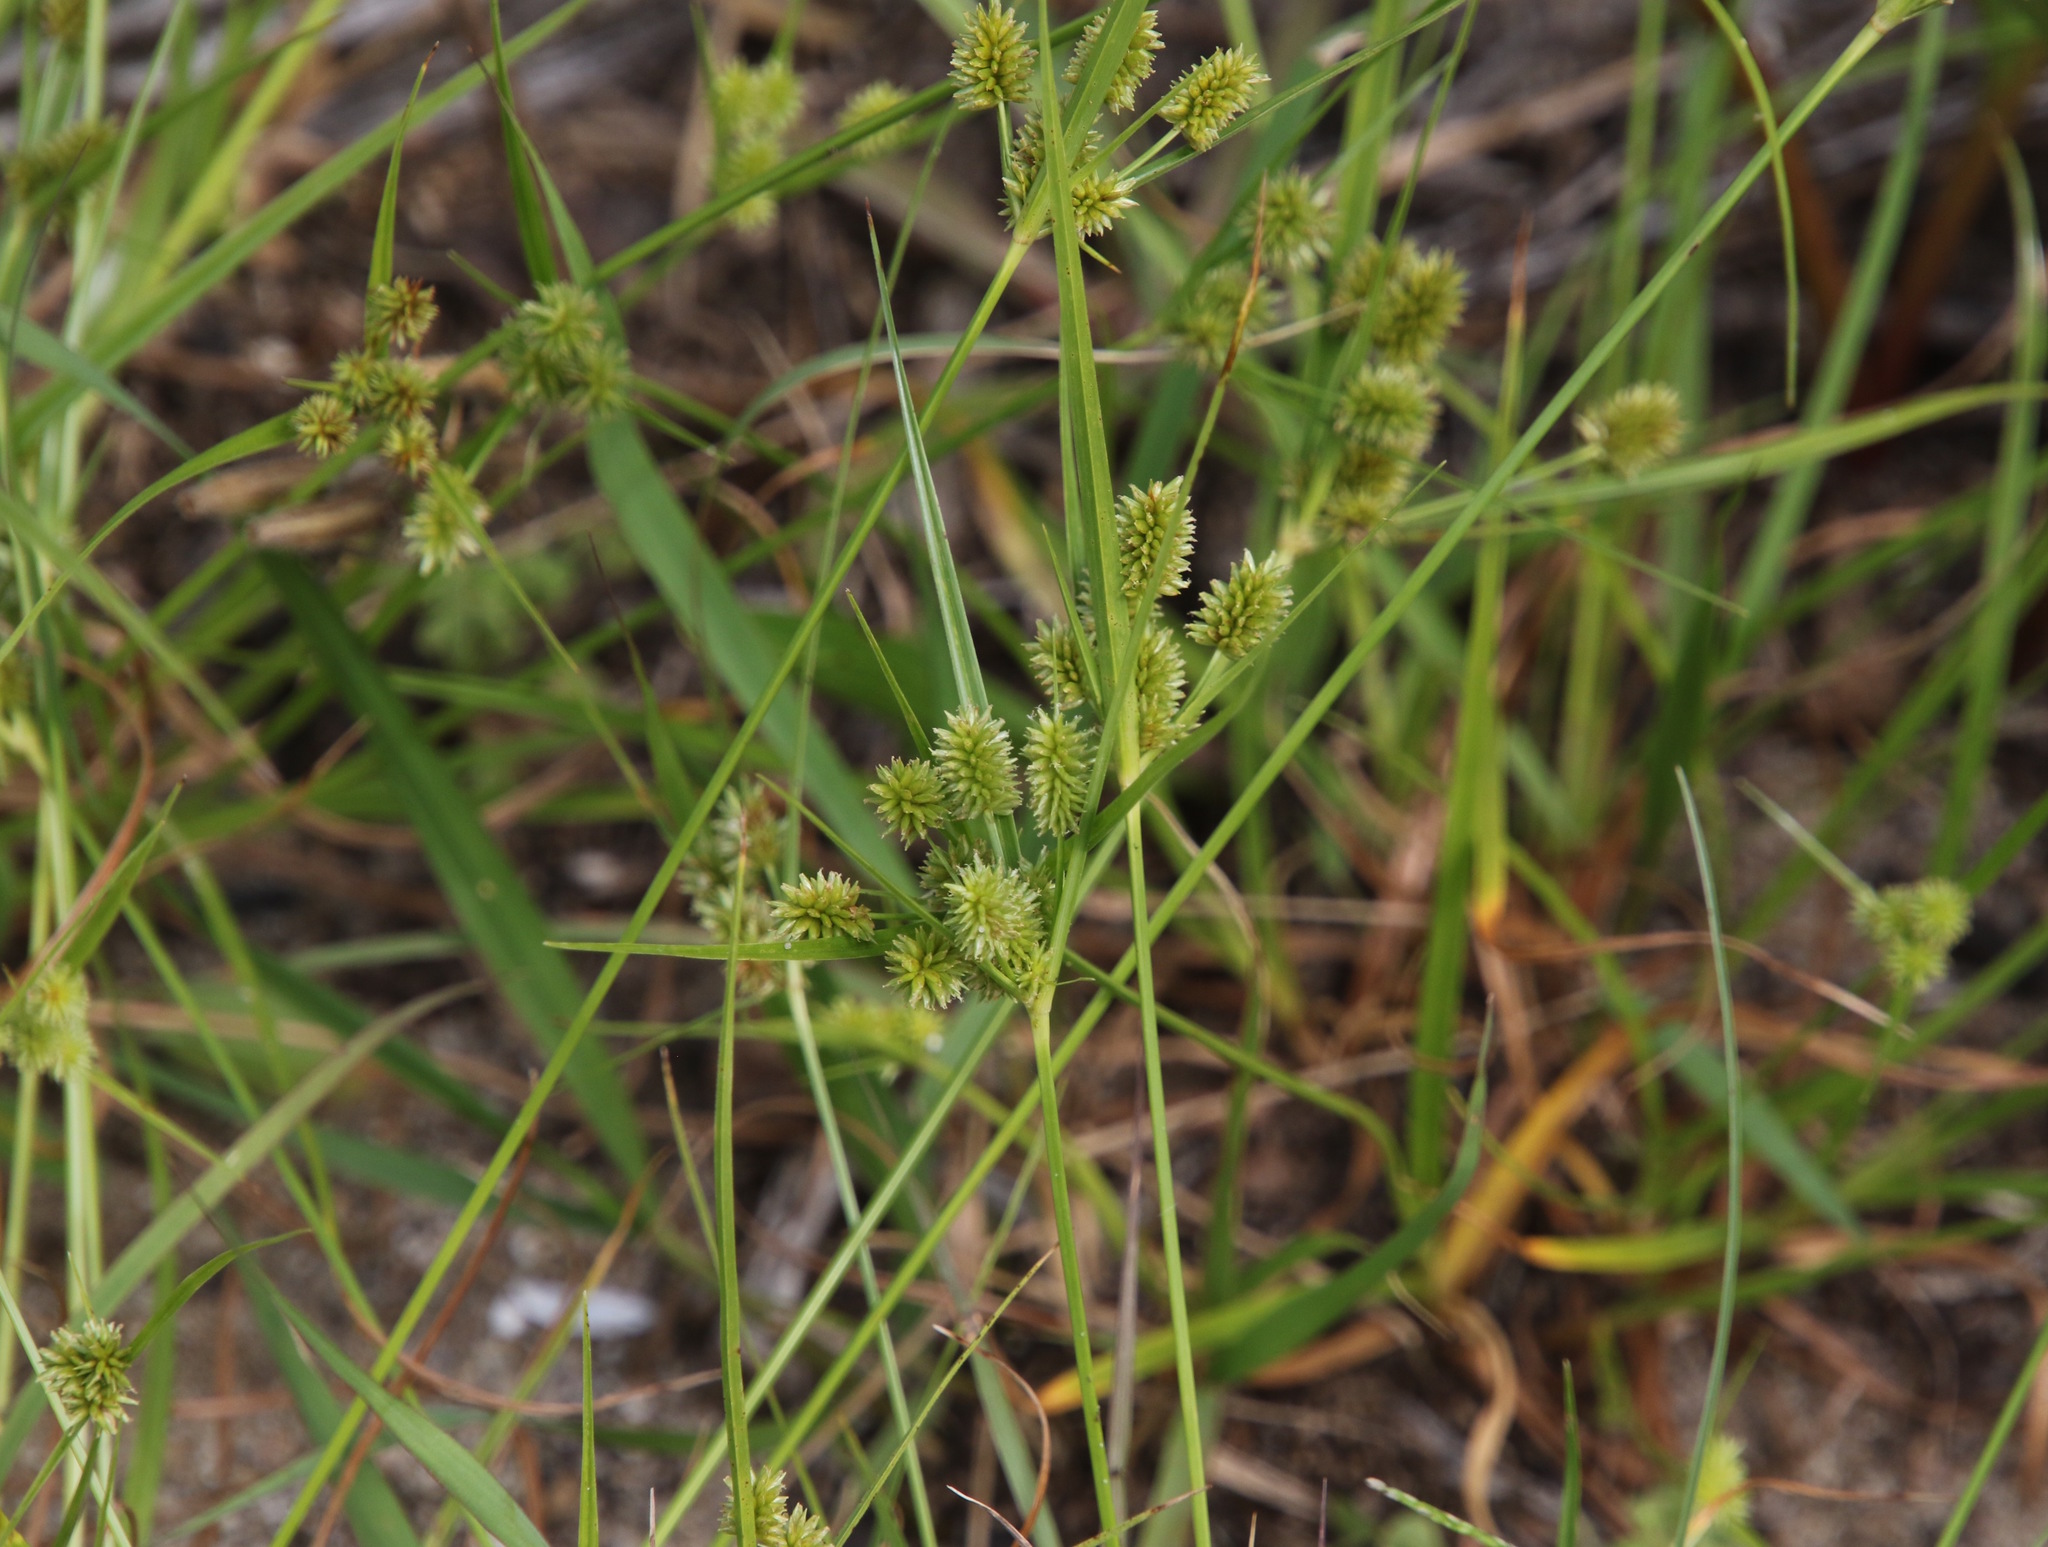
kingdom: Plantae
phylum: Tracheophyta
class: Liliopsida
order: Poales
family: Cyperaceae
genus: Cyperus
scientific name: Cyperus retrorsus
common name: Pinebarren flat sedge
